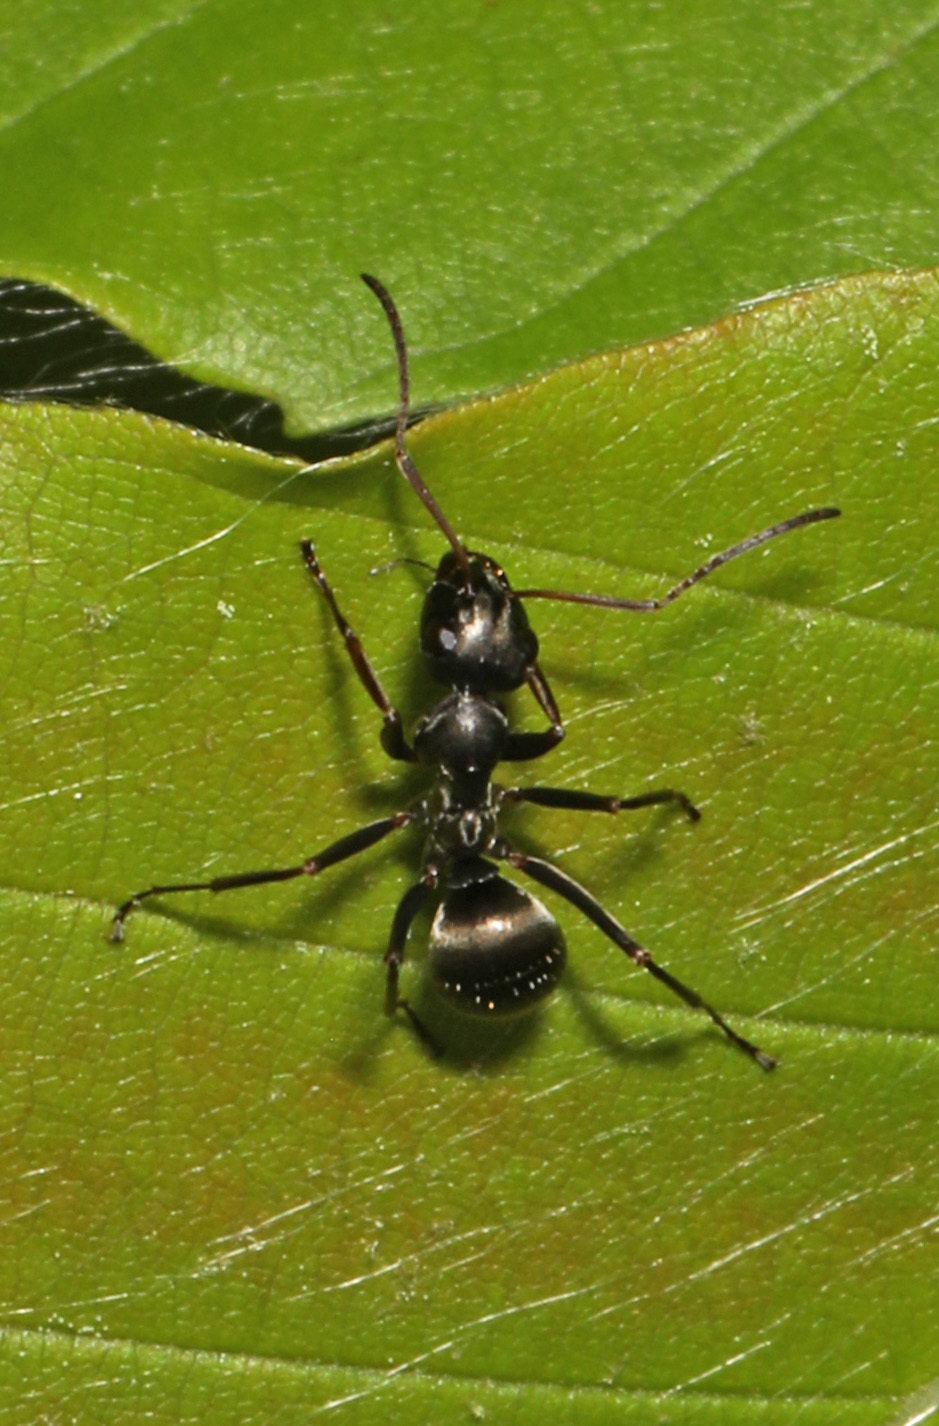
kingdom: Animalia
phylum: Arthropoda
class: Insecta
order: Hymenoptera
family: Formicidae
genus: Formica
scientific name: Formica subsericea
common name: Silky field ant
